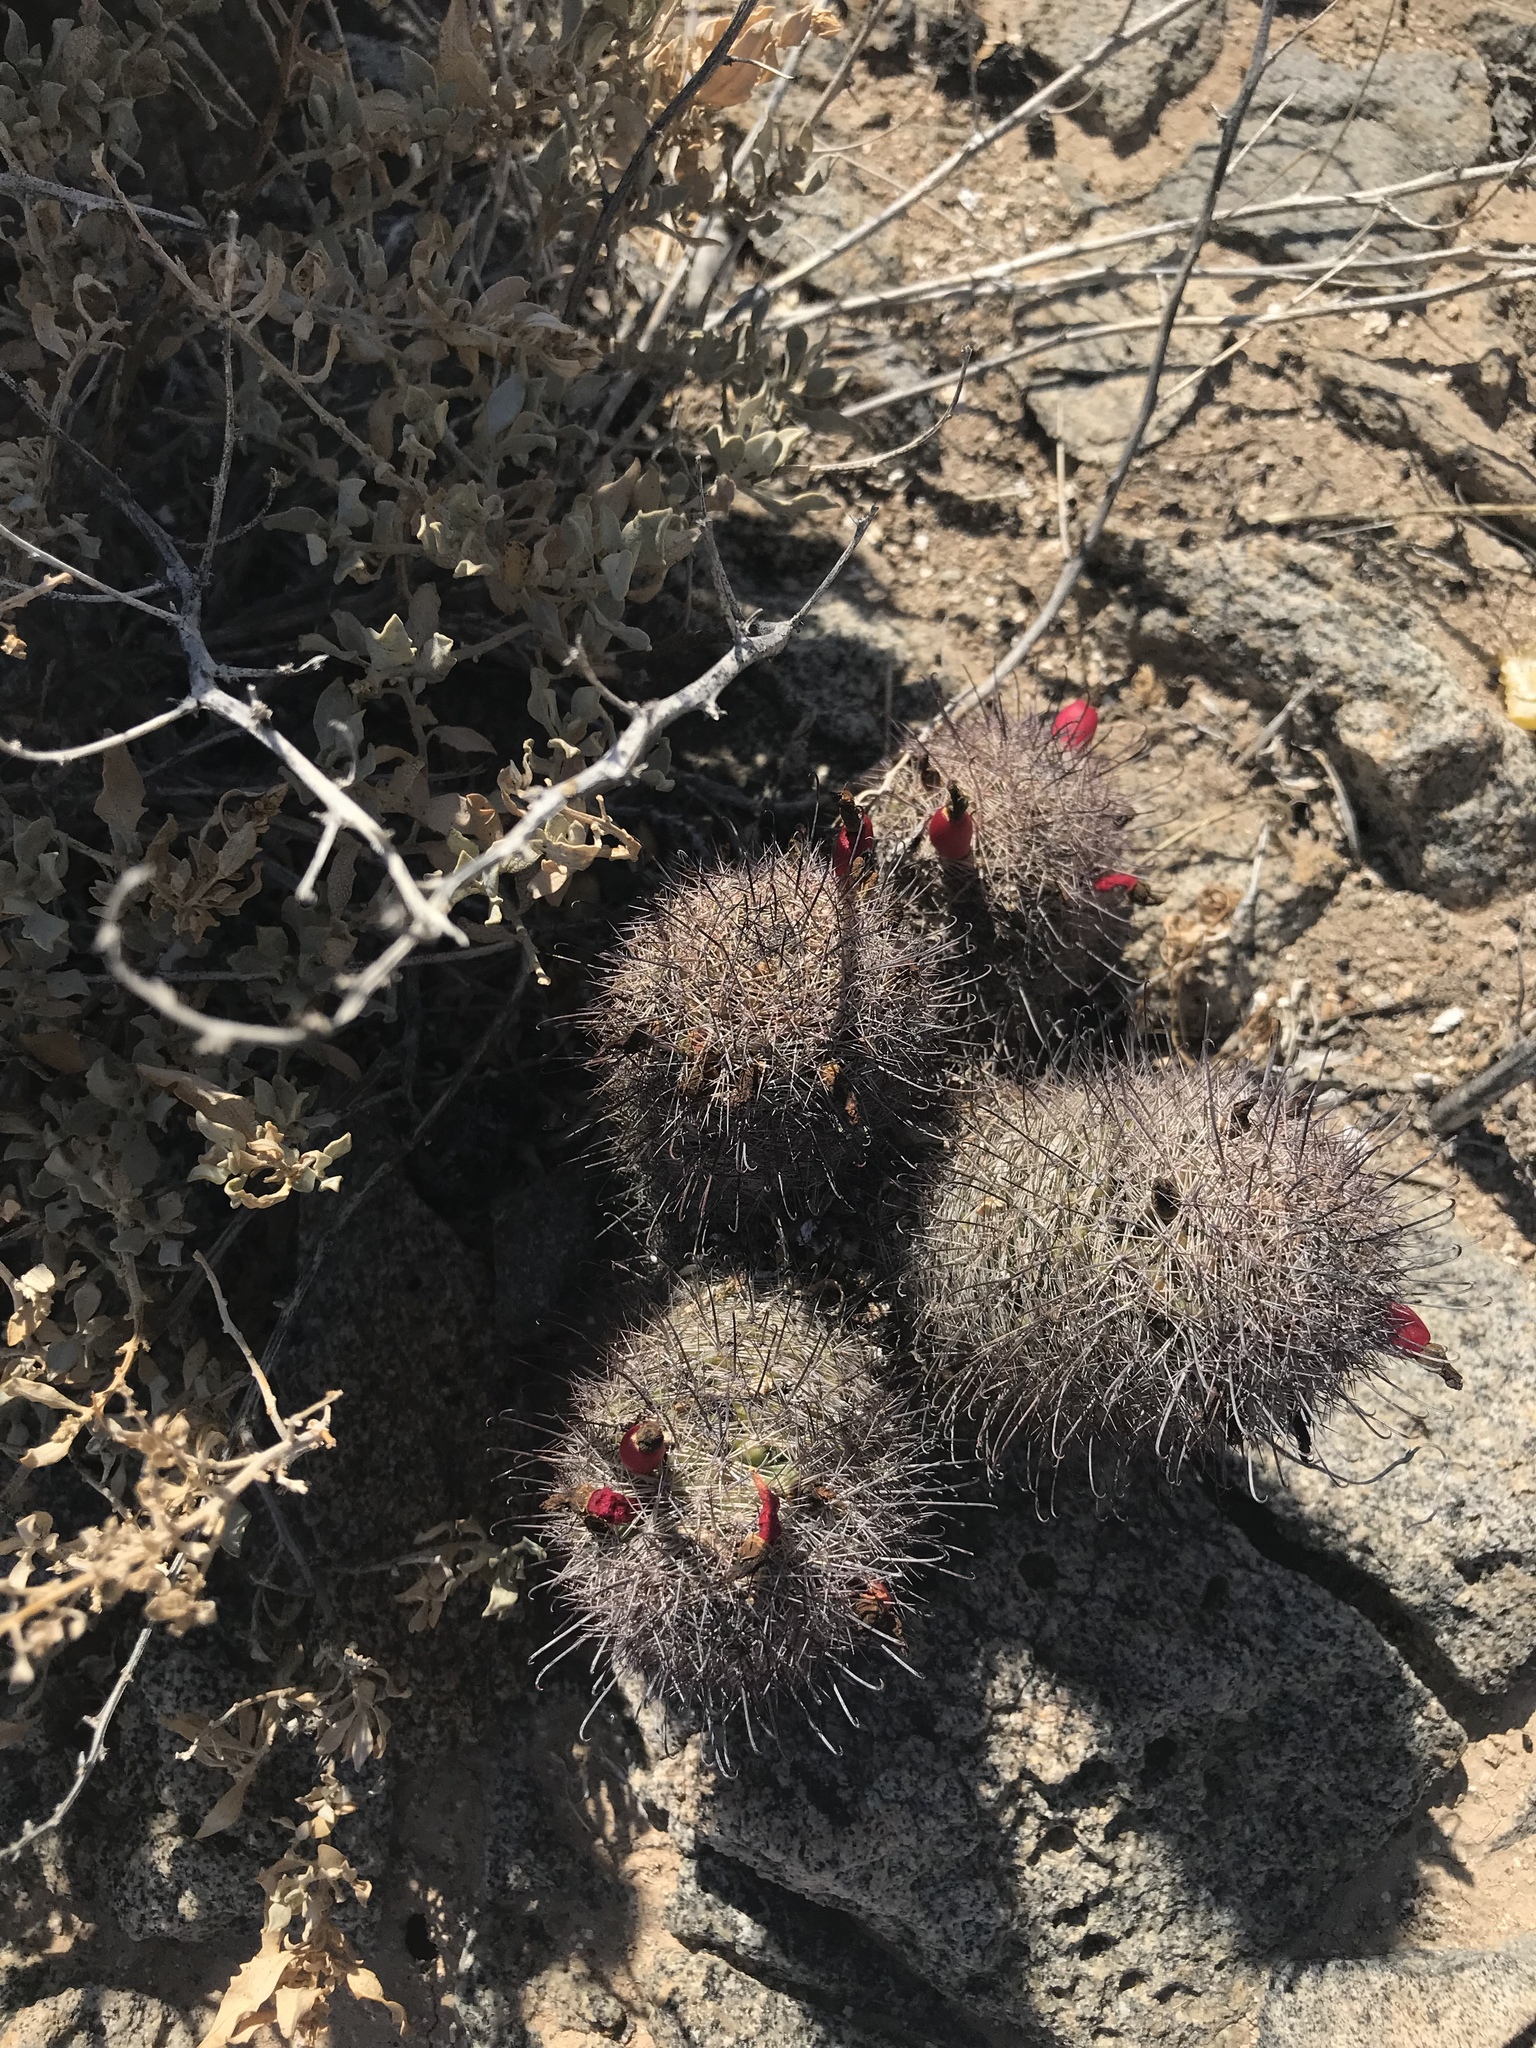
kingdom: Plantae
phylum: Tracheophyta
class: Magnoliopsida
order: Caryophyllales
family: Cactaceae
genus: Cochemiea
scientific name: Cochemiea dioica
